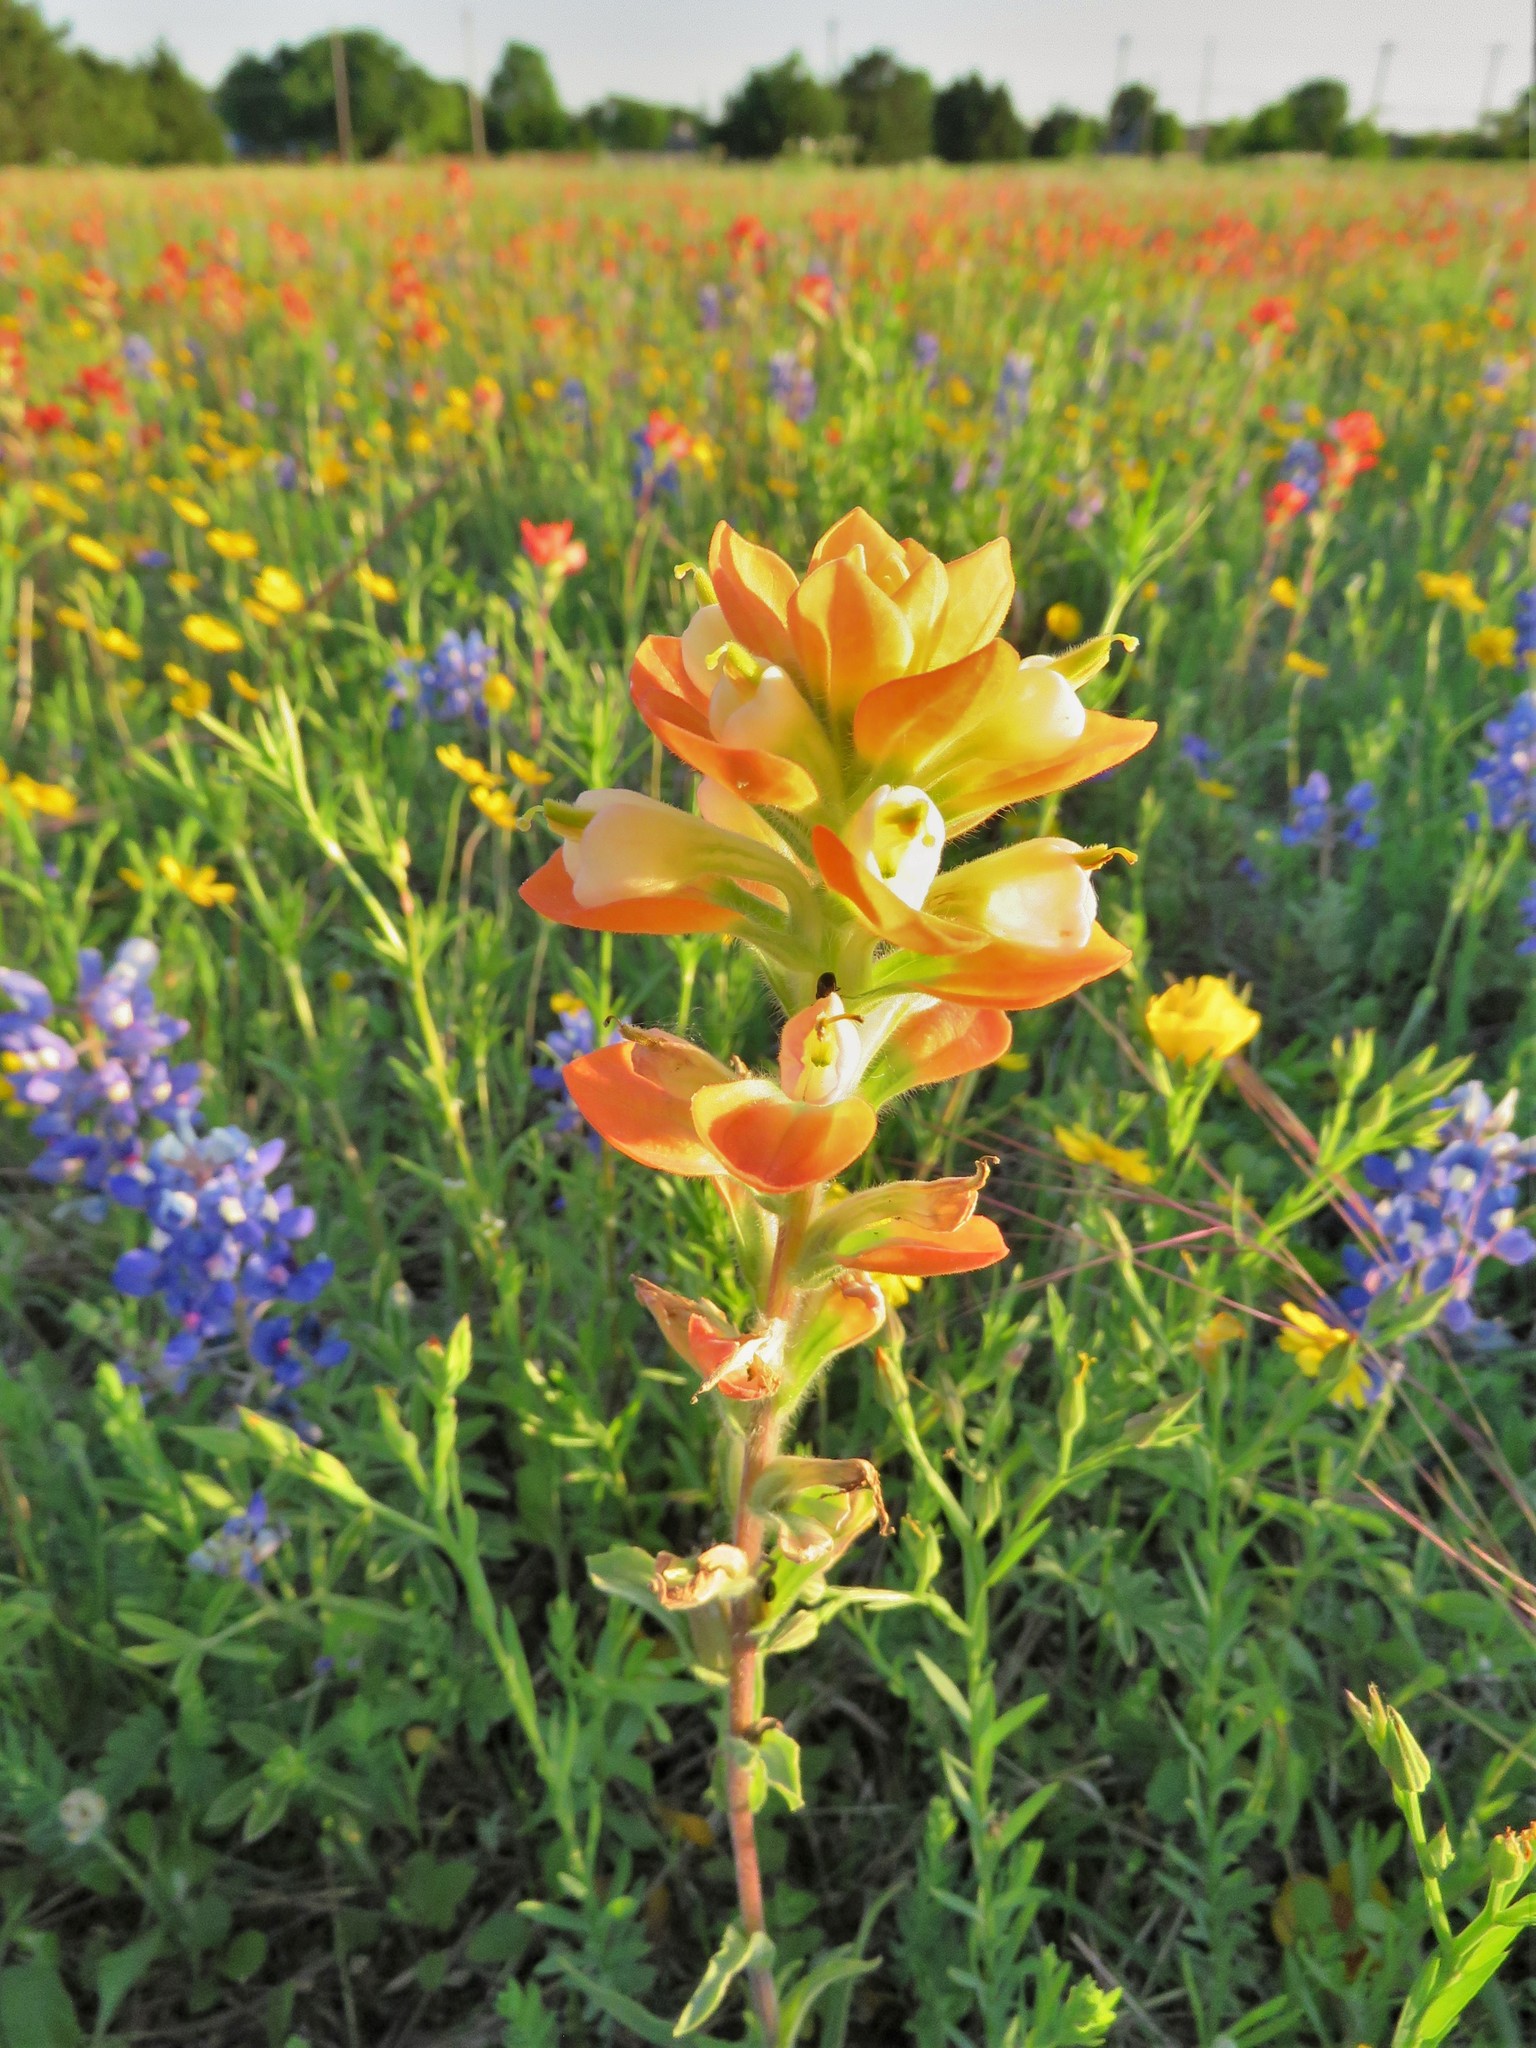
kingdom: Plantae
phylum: Tracheophyta
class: Magnoliopsida
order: Lamiales
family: Orobanchaceae
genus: Castilleja
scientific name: Castilleja indivisa
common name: Texas paintbrush
